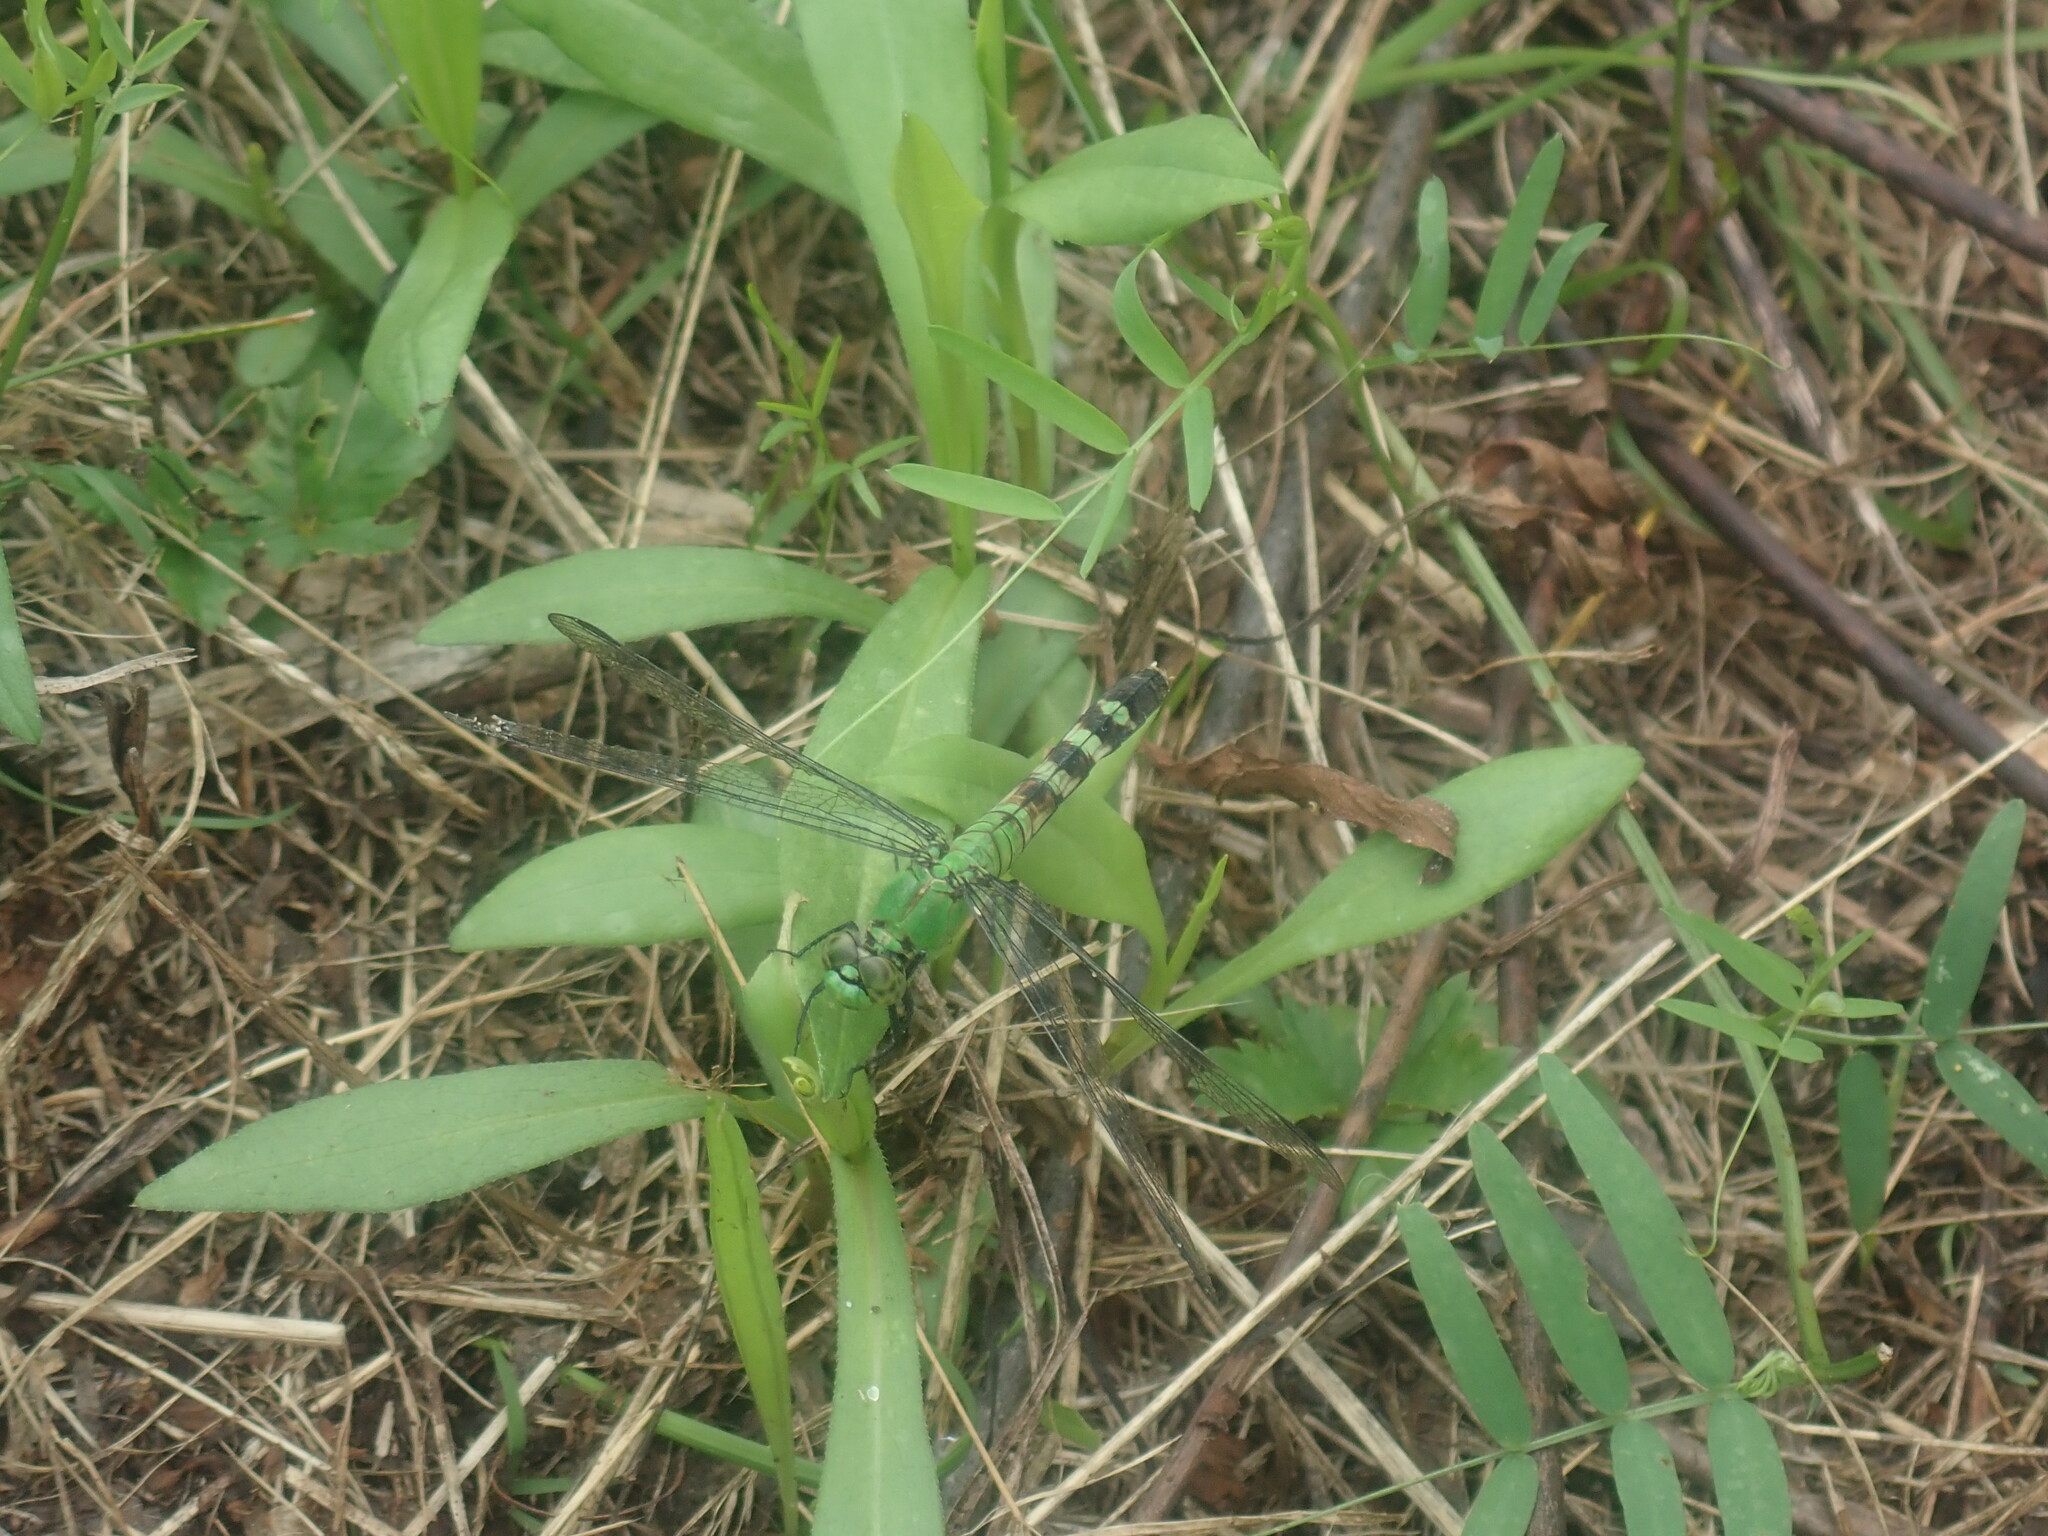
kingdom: Animalia
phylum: Arthropoda
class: Insecta
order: Odonata
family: Libellulidae
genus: Erythemis
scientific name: Erythemis simplicicollis
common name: Eastern pondhawk
